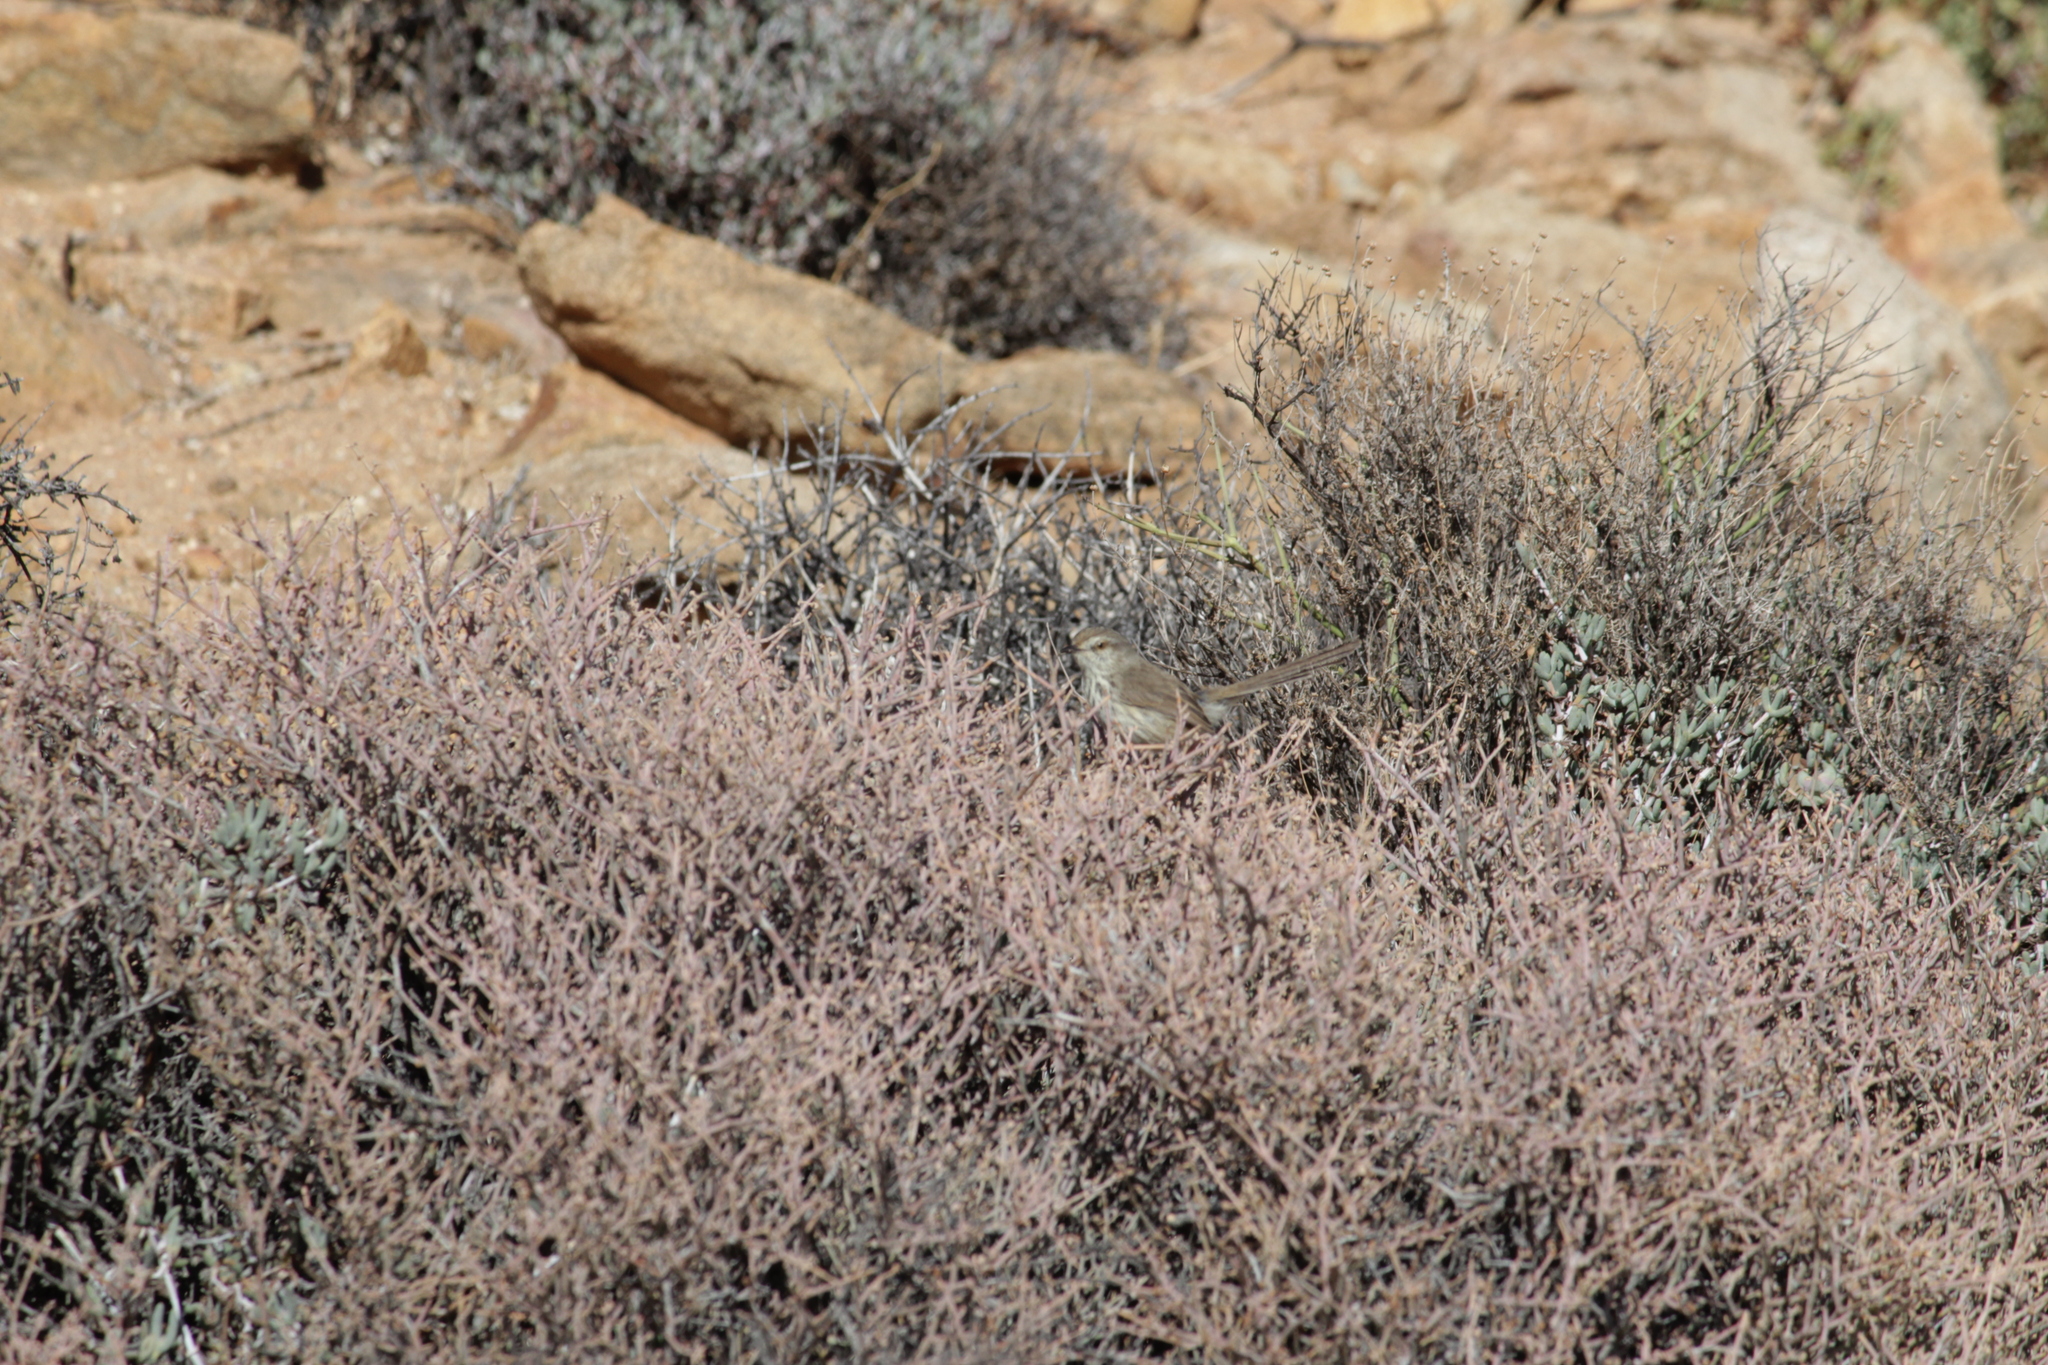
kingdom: Animalia
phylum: Chordata
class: Aves
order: Passeriformes
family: Cisticolidae
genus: Prinia
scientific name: Prinia maculosa
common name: Karoo prinia
